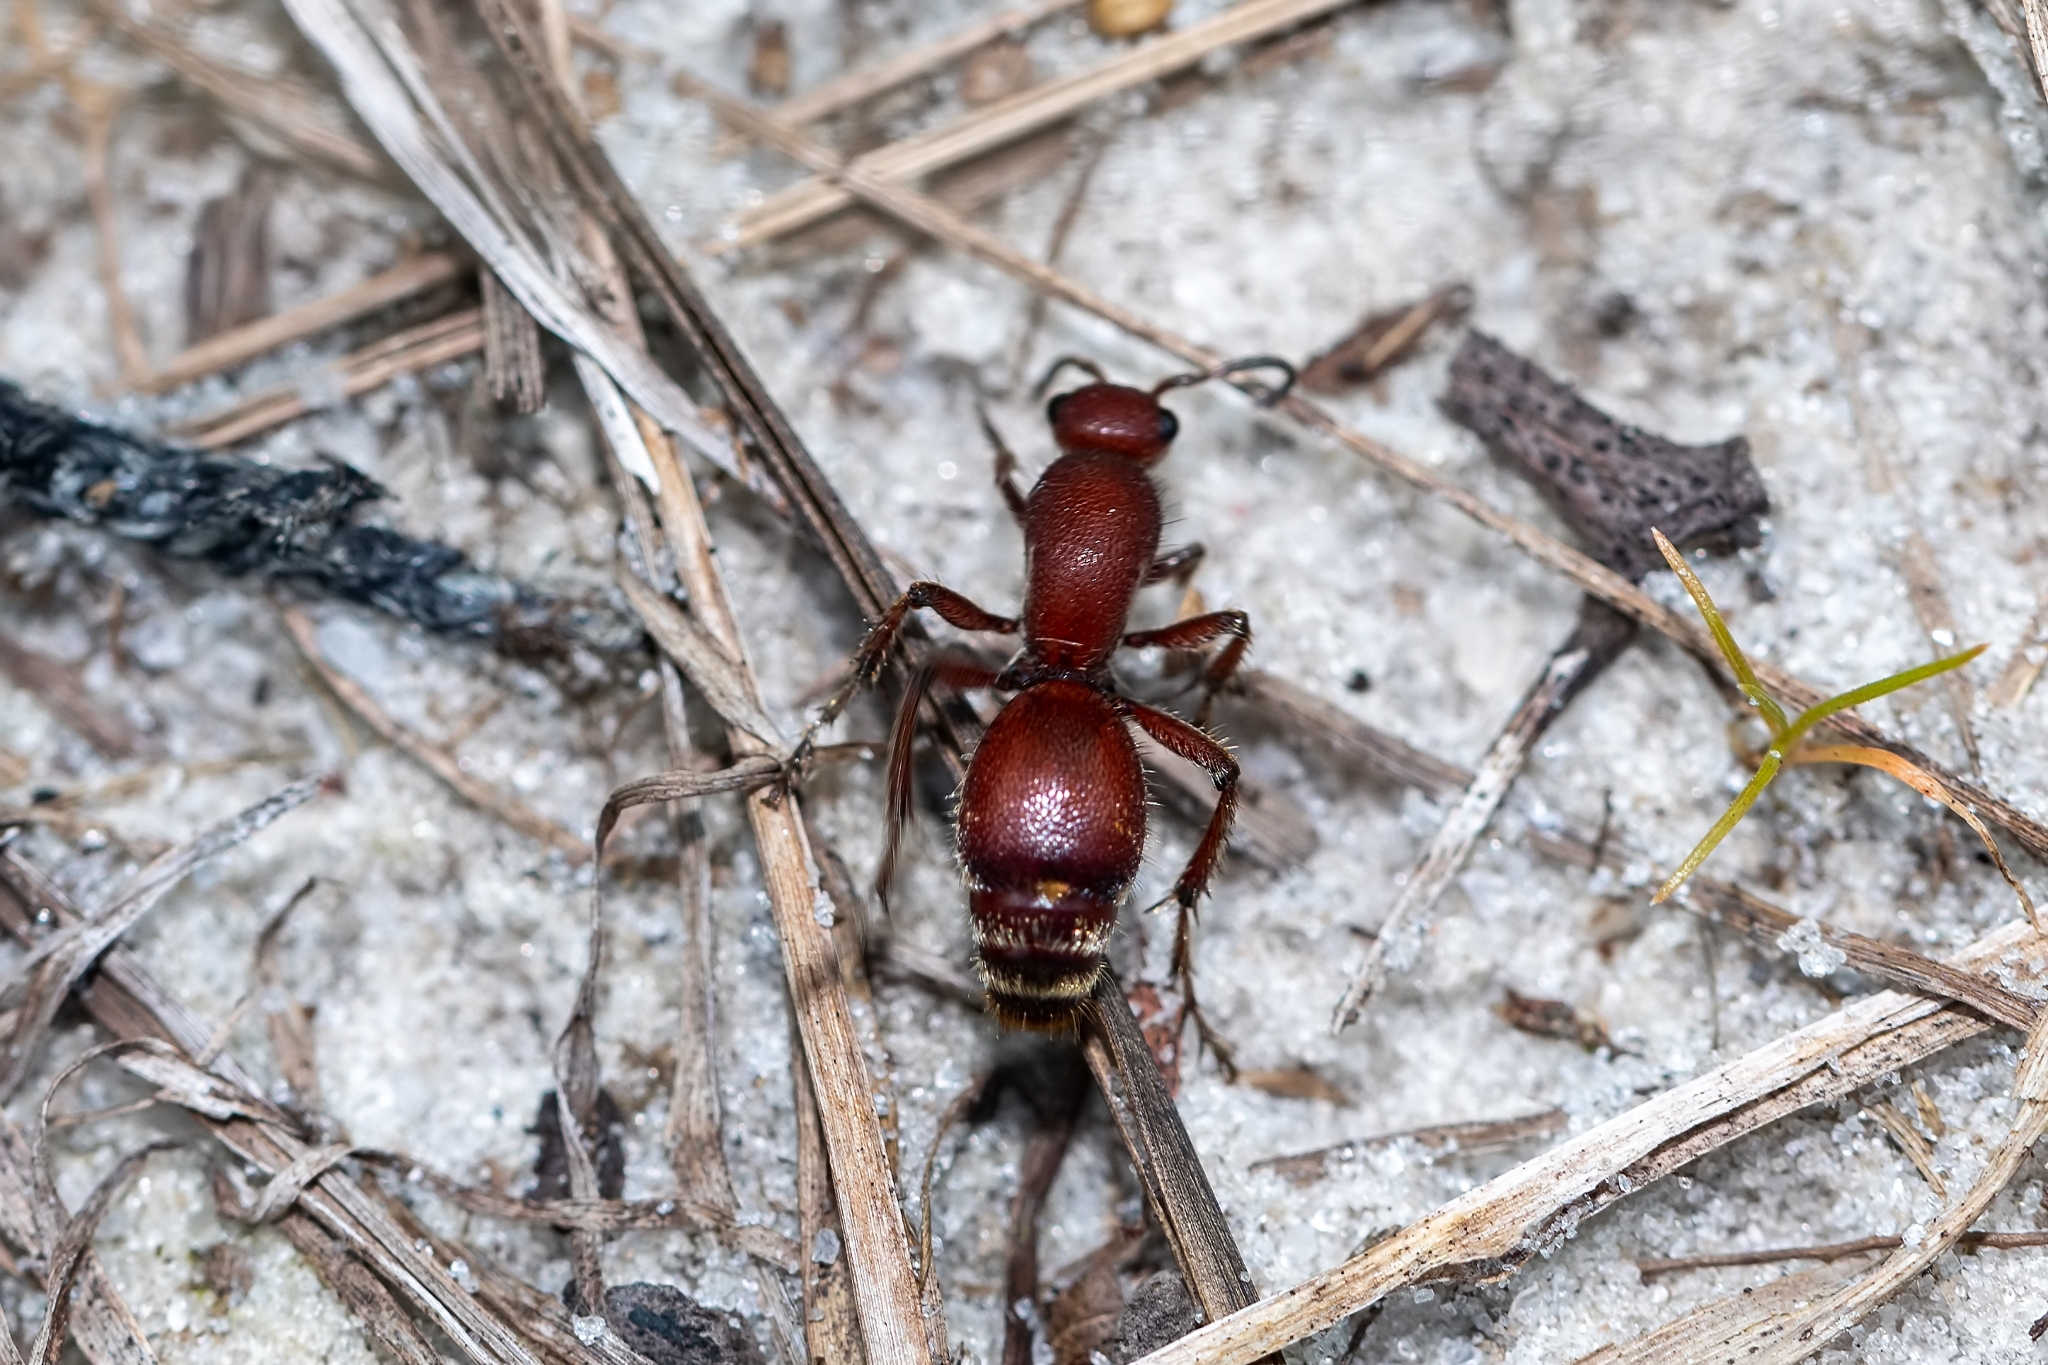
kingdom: Animalia
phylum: Arthropoda
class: Insecta
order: Hymenoptera
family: Mutillidae
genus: Dasymutilla
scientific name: Dasymutilla
